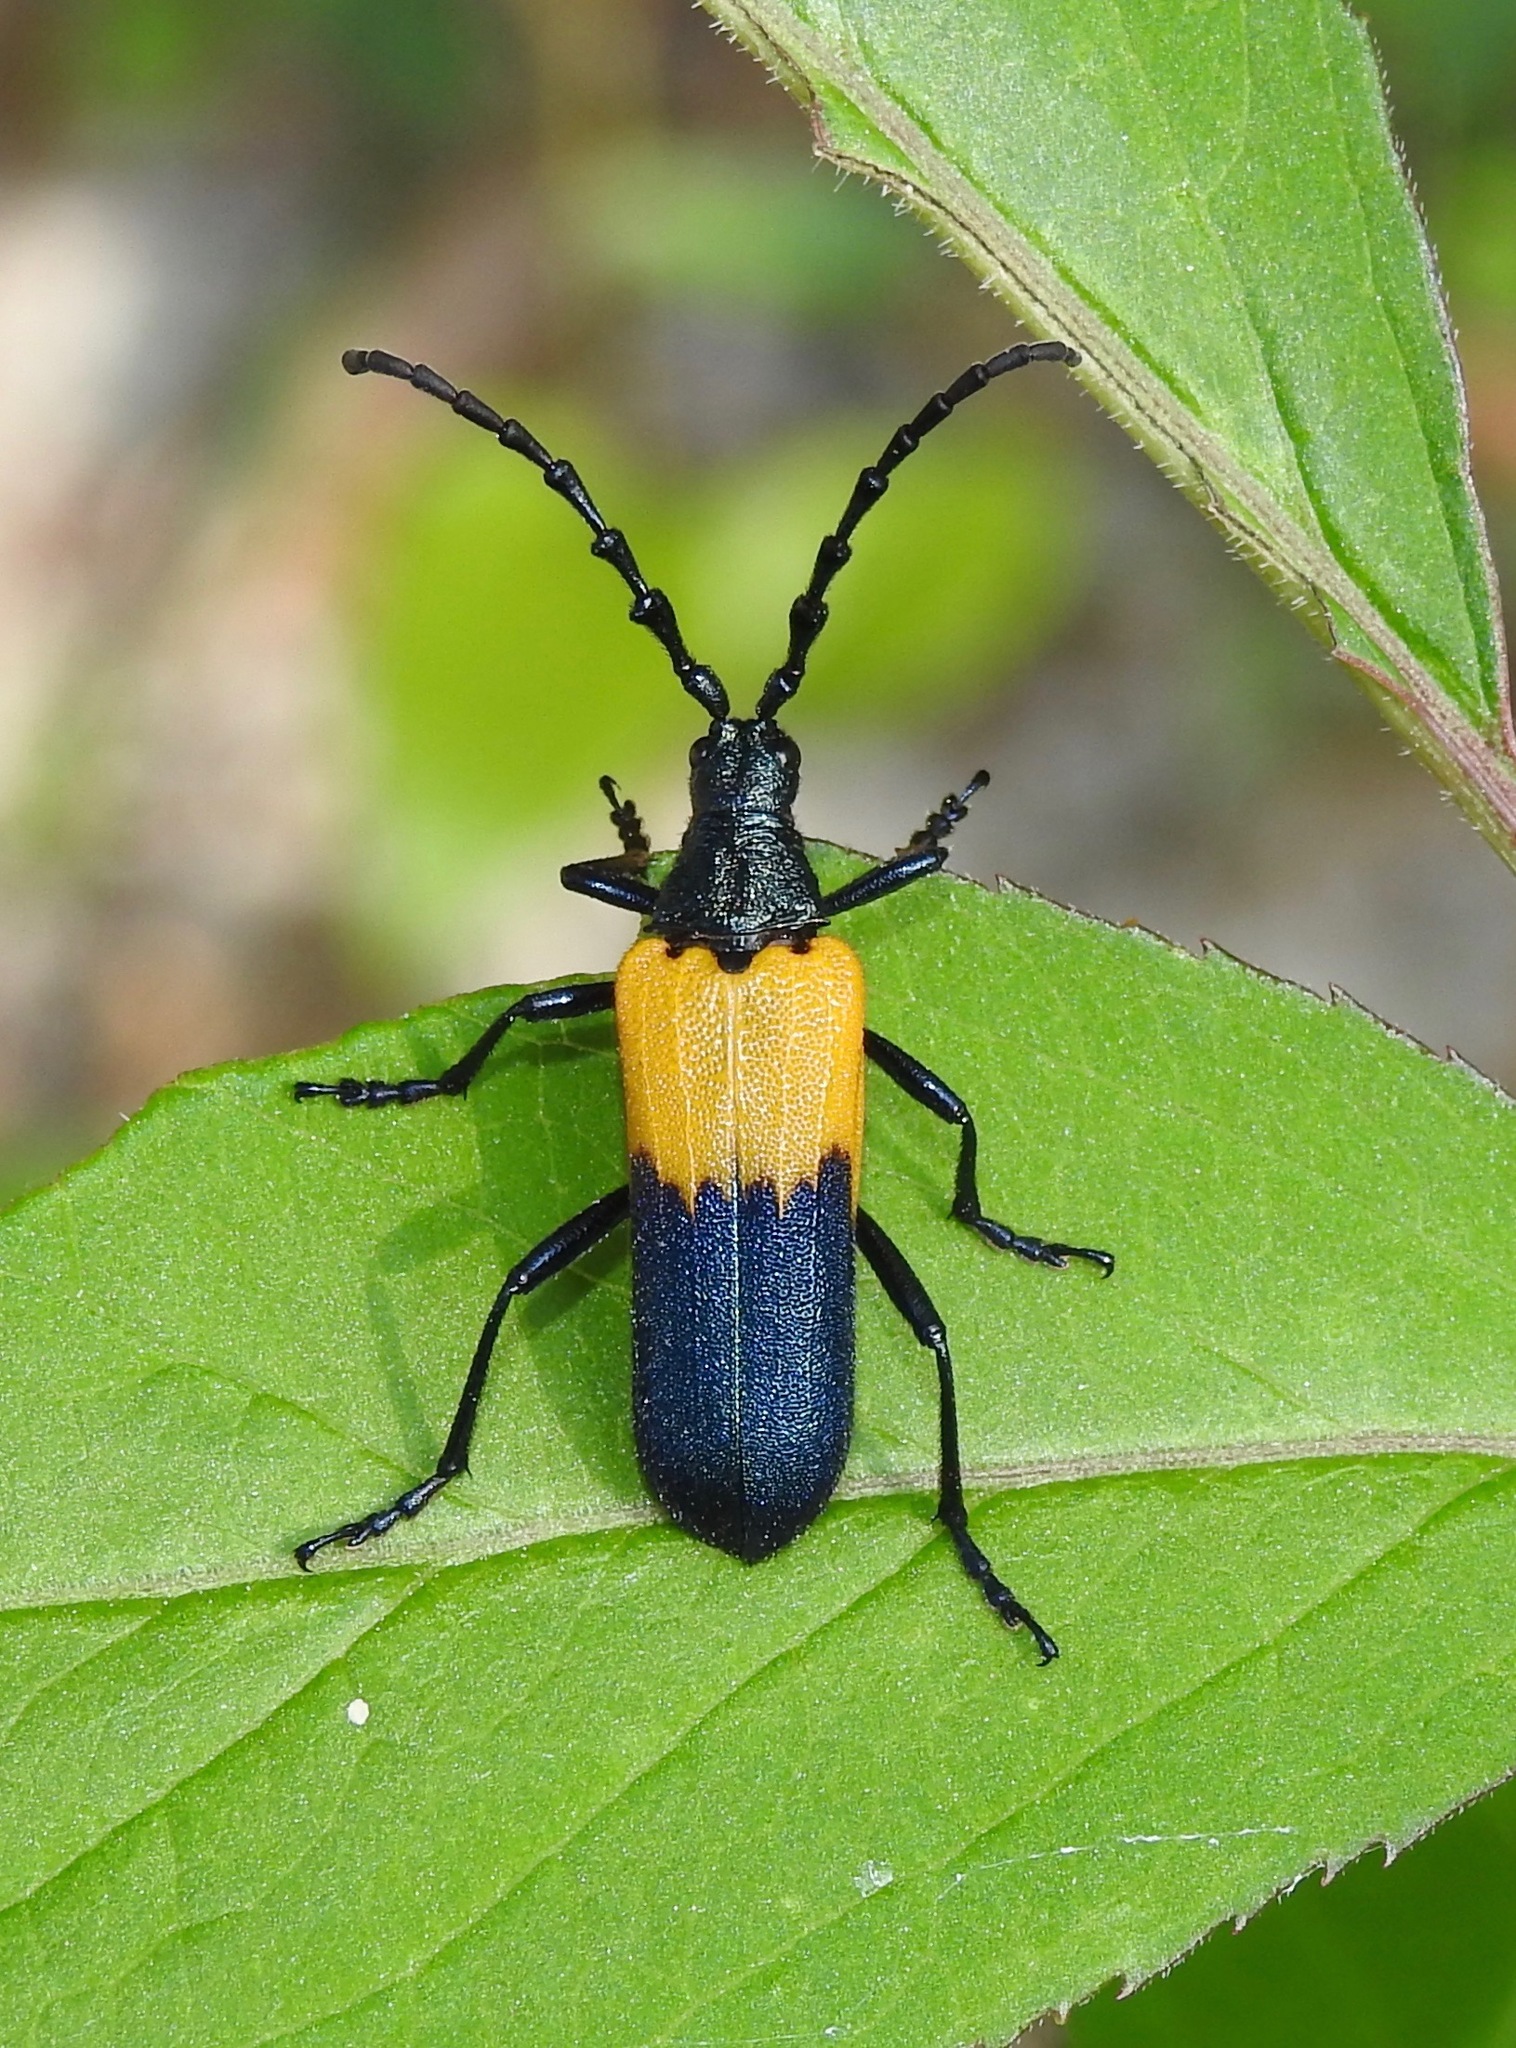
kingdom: Animalia
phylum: Arthropoda
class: Insecta
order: Coleoptera
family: Cerambycidae
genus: Desmocerus
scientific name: Desmocerus palliatus
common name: Eastern elderberry borer
